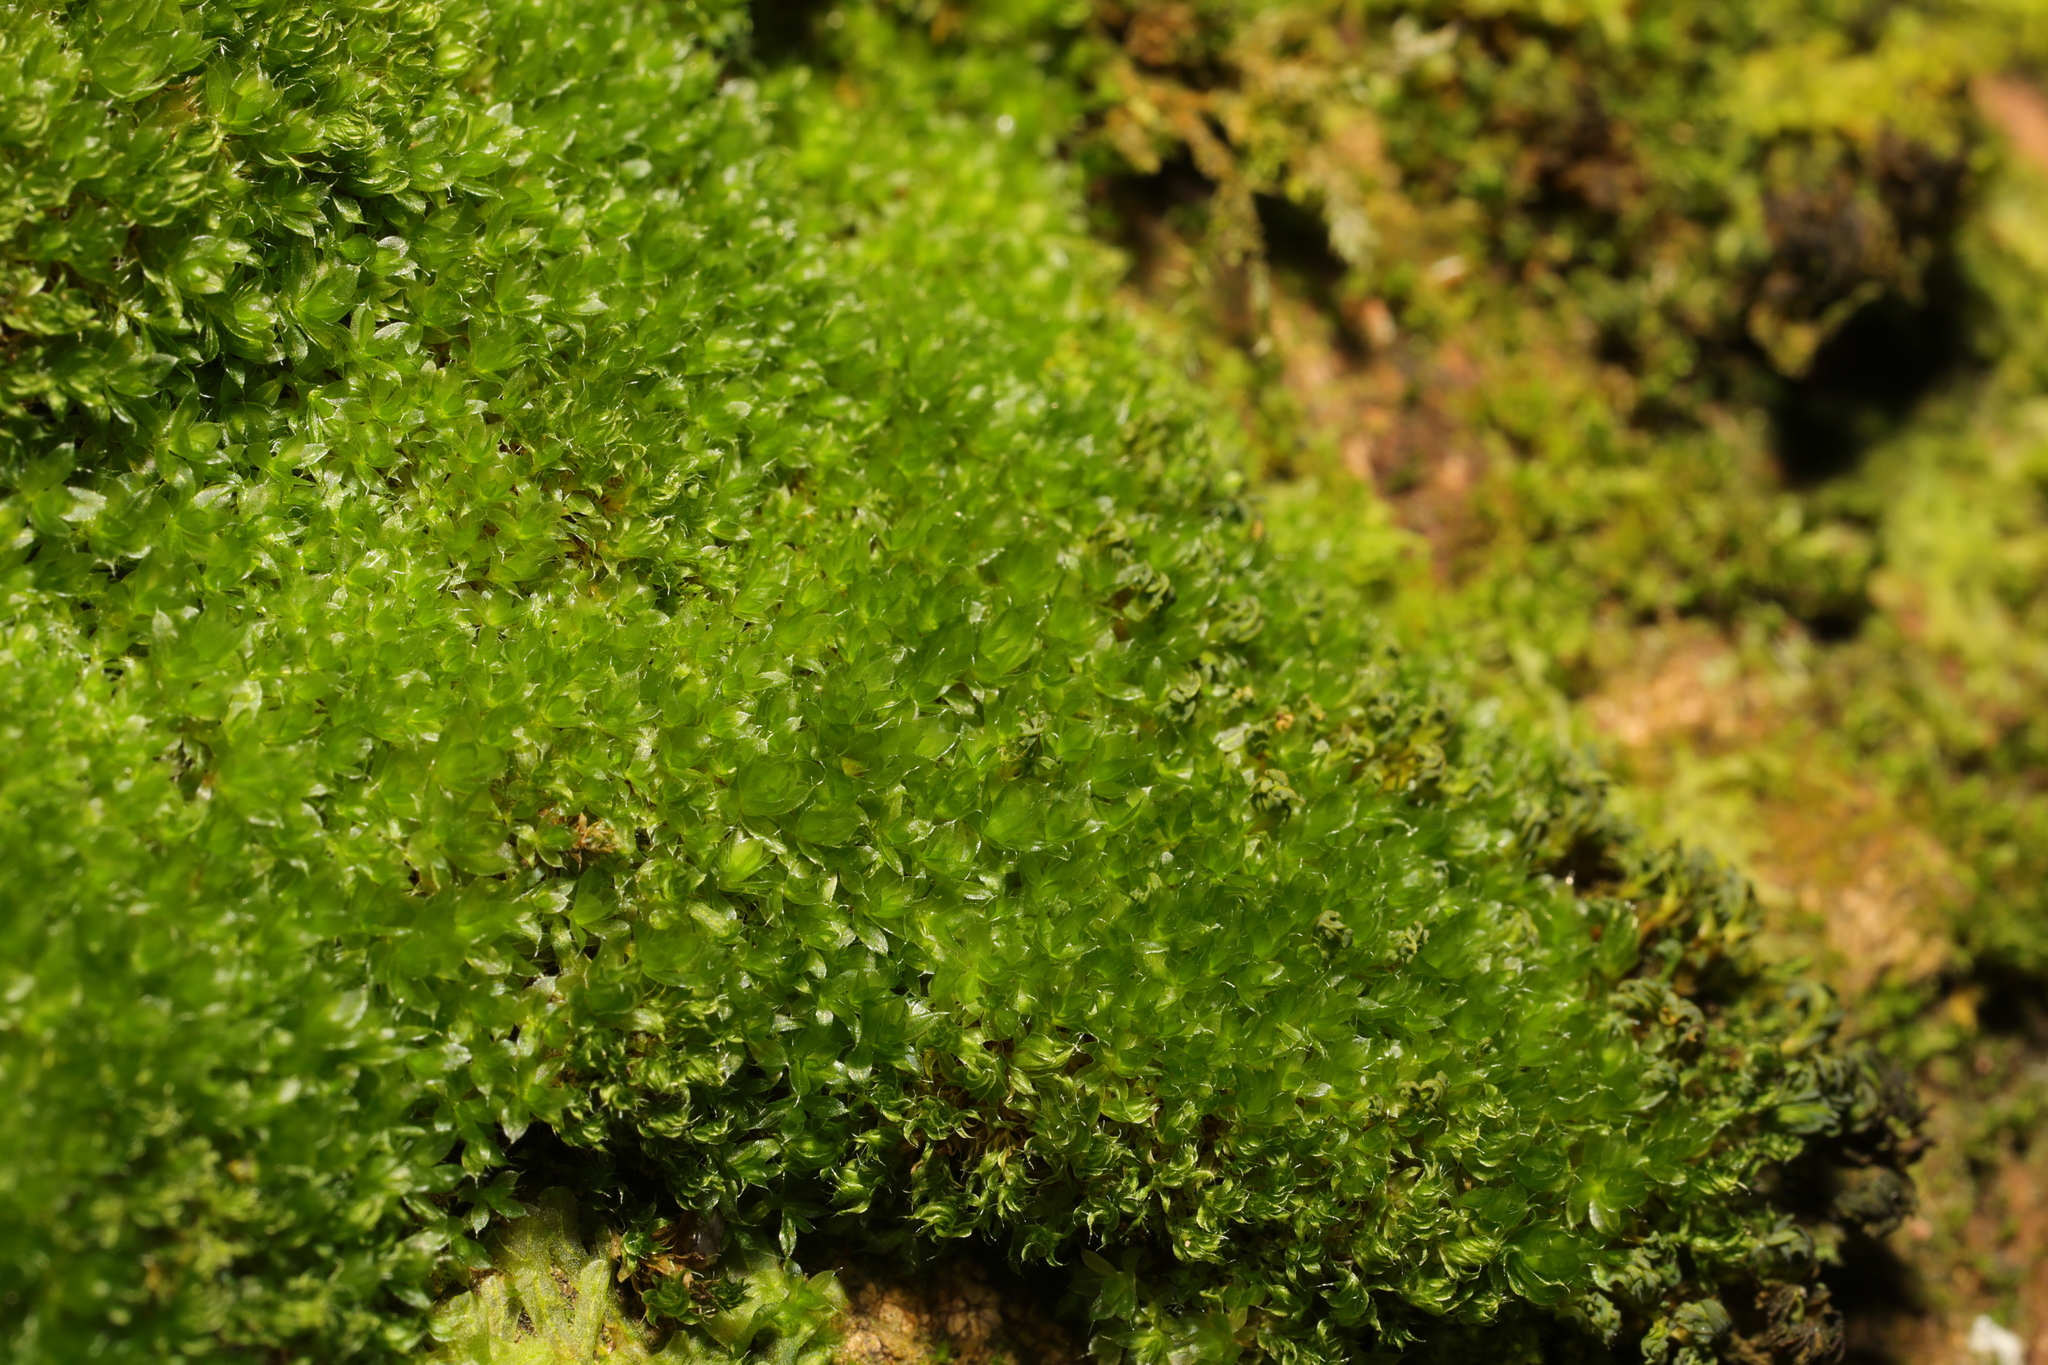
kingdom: Plantae
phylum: Bryophyta
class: Bryopsida
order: Bryales
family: Bryaceae
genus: Rosulabryum
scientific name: Rosulabryum capillare
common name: Capillary thread-moss
